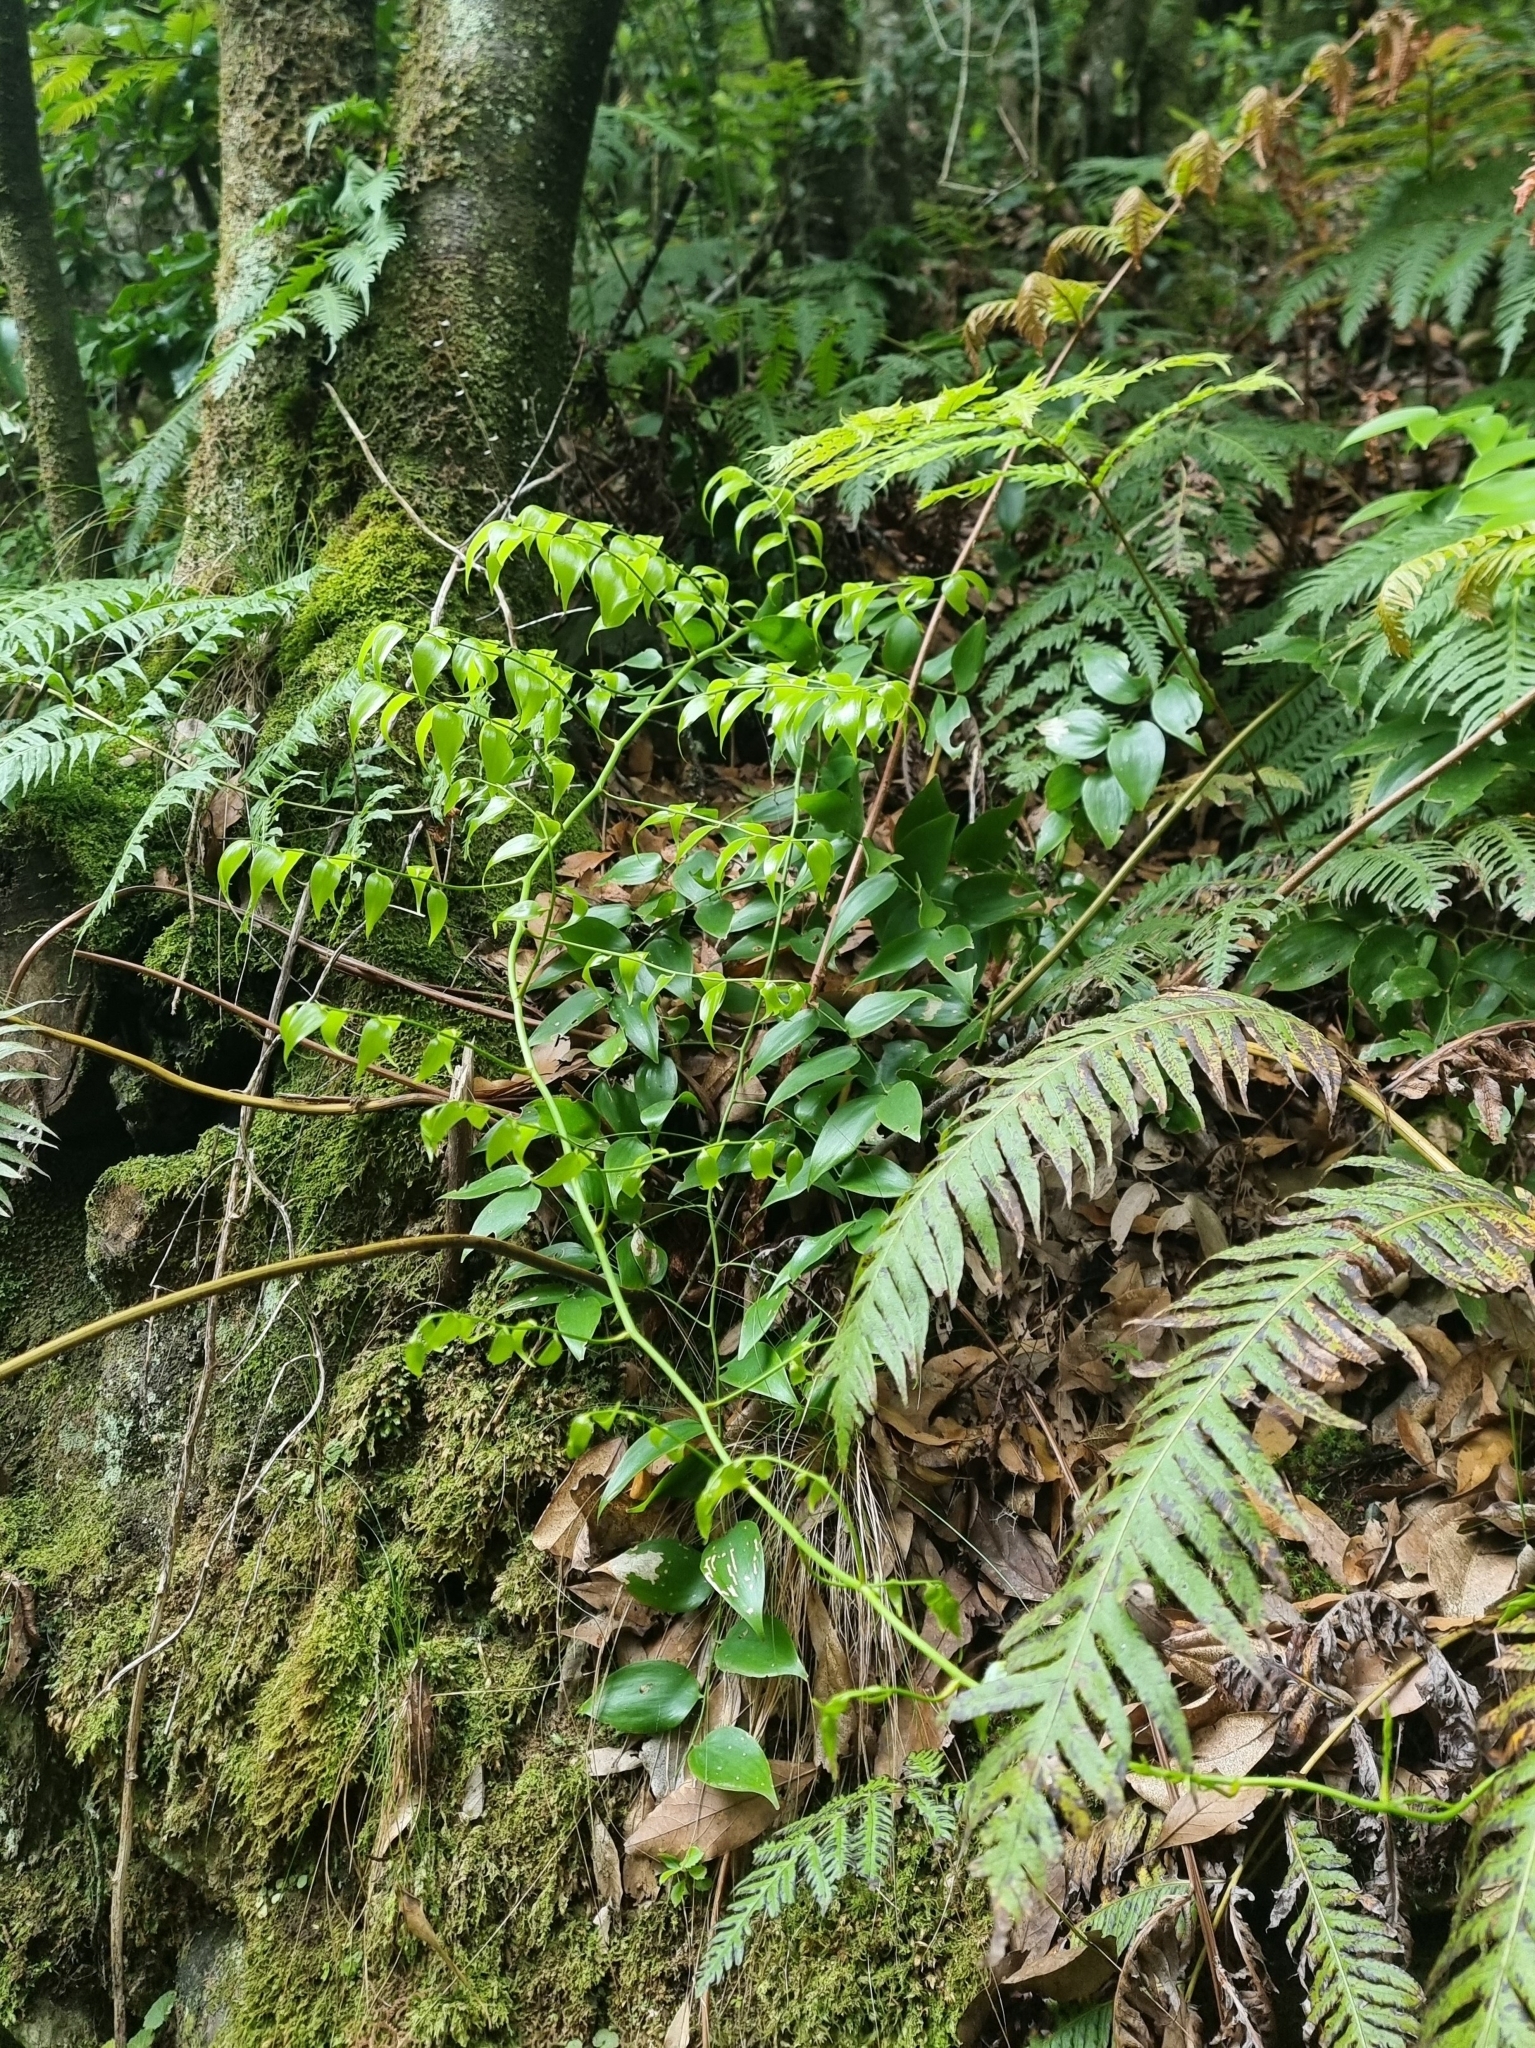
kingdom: Plantae
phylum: Tracheophyta
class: Liliopsida
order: Asparagales
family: Asparagaceae
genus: Semele
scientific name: Semele androgyna
